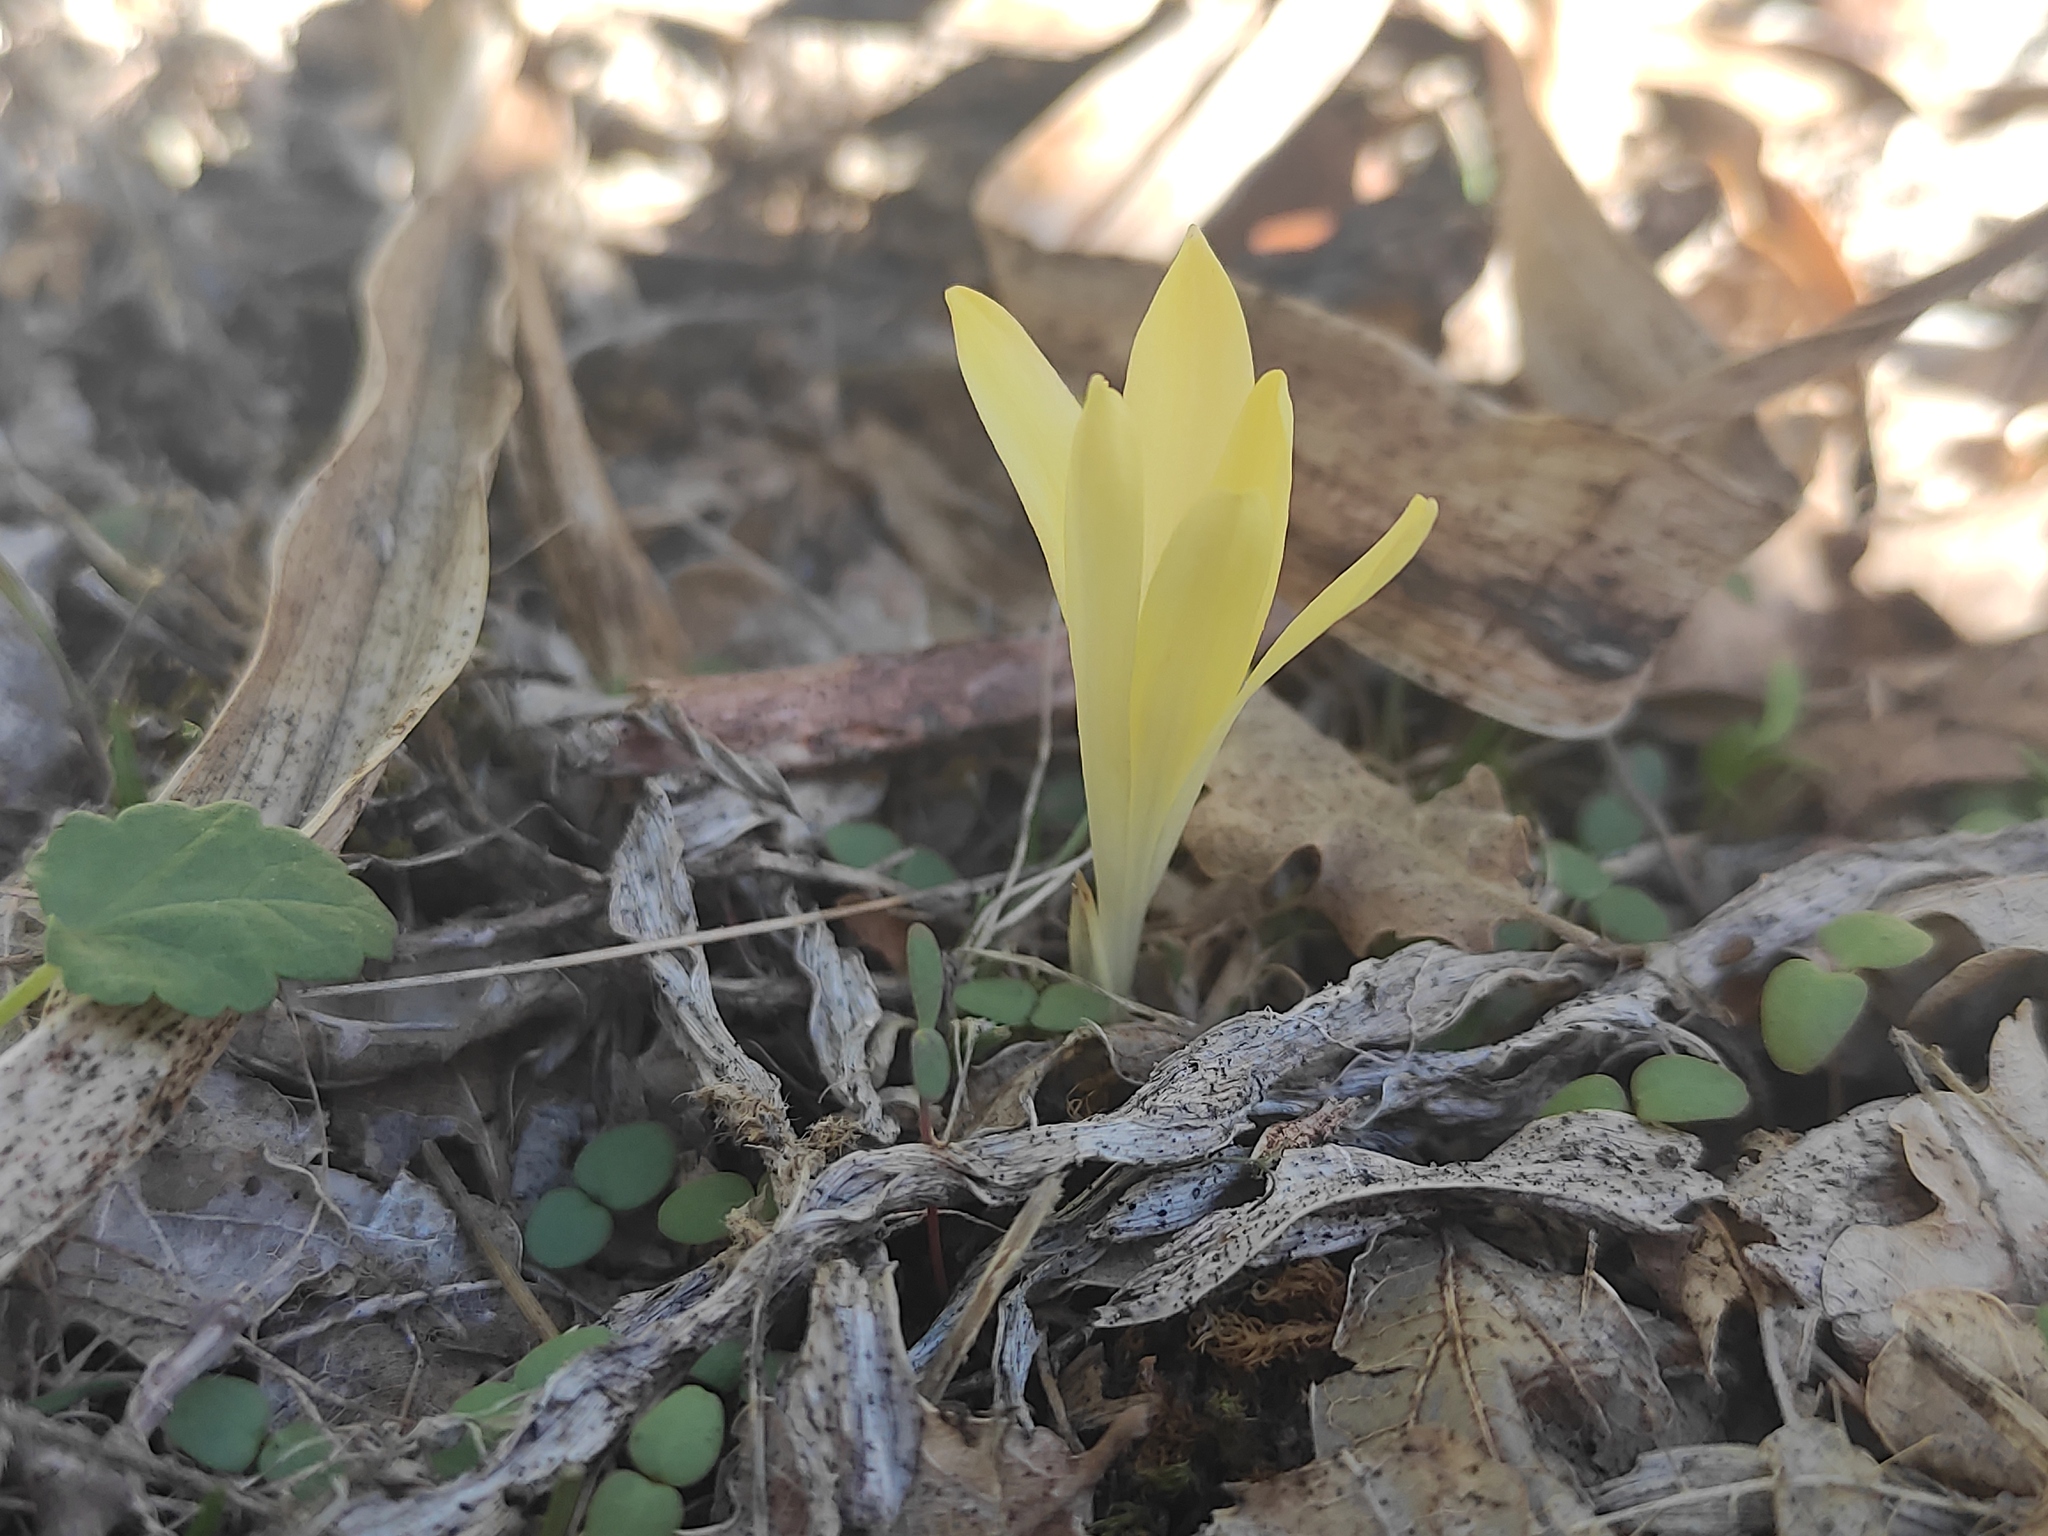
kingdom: Plantae
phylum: Tracheophyta
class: Liliopsida
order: Asparagales
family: Amaryllidaceae
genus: Sternbergia
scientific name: Sternbergia colchiciflora
